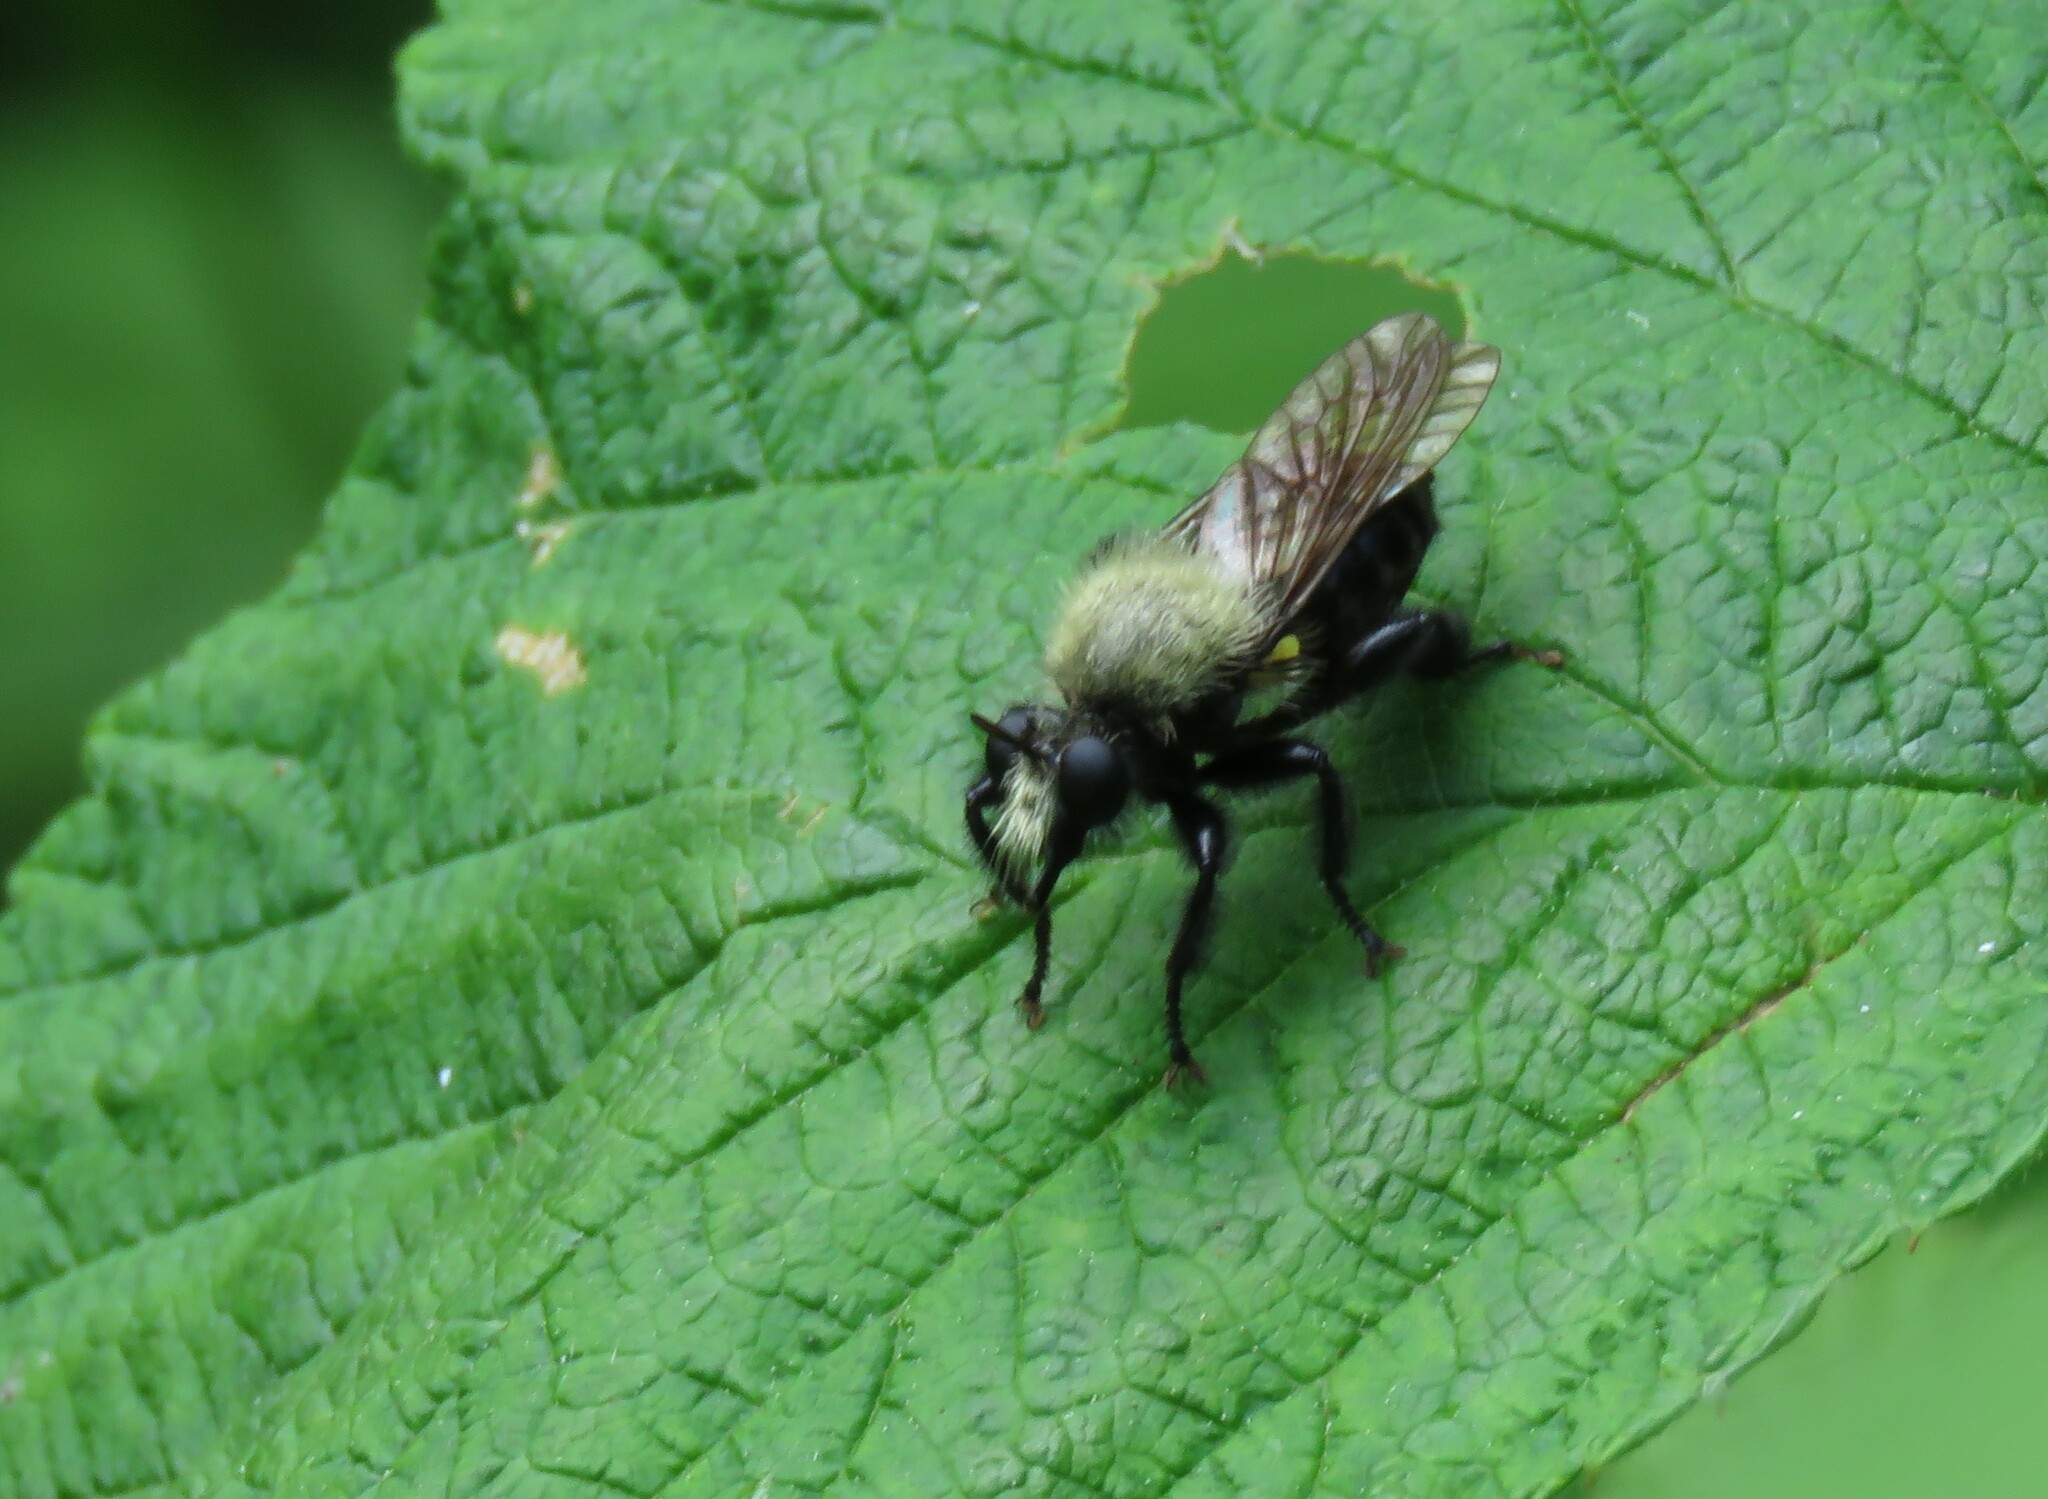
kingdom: Animalia
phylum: Arthropoda
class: Insecta
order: Diptera
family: Asilidae
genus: Laphria
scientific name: Laphria flavicollis
